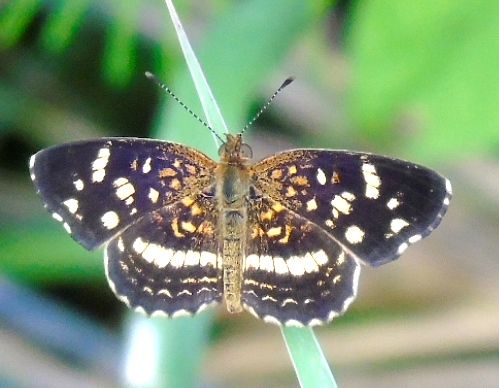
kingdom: Animalia
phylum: Arthropoda
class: Insecta
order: Lepidoptera
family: Nymphalidae
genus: Anthanassa
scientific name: Anthanassa tulcis
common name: Pale-banded crescent
